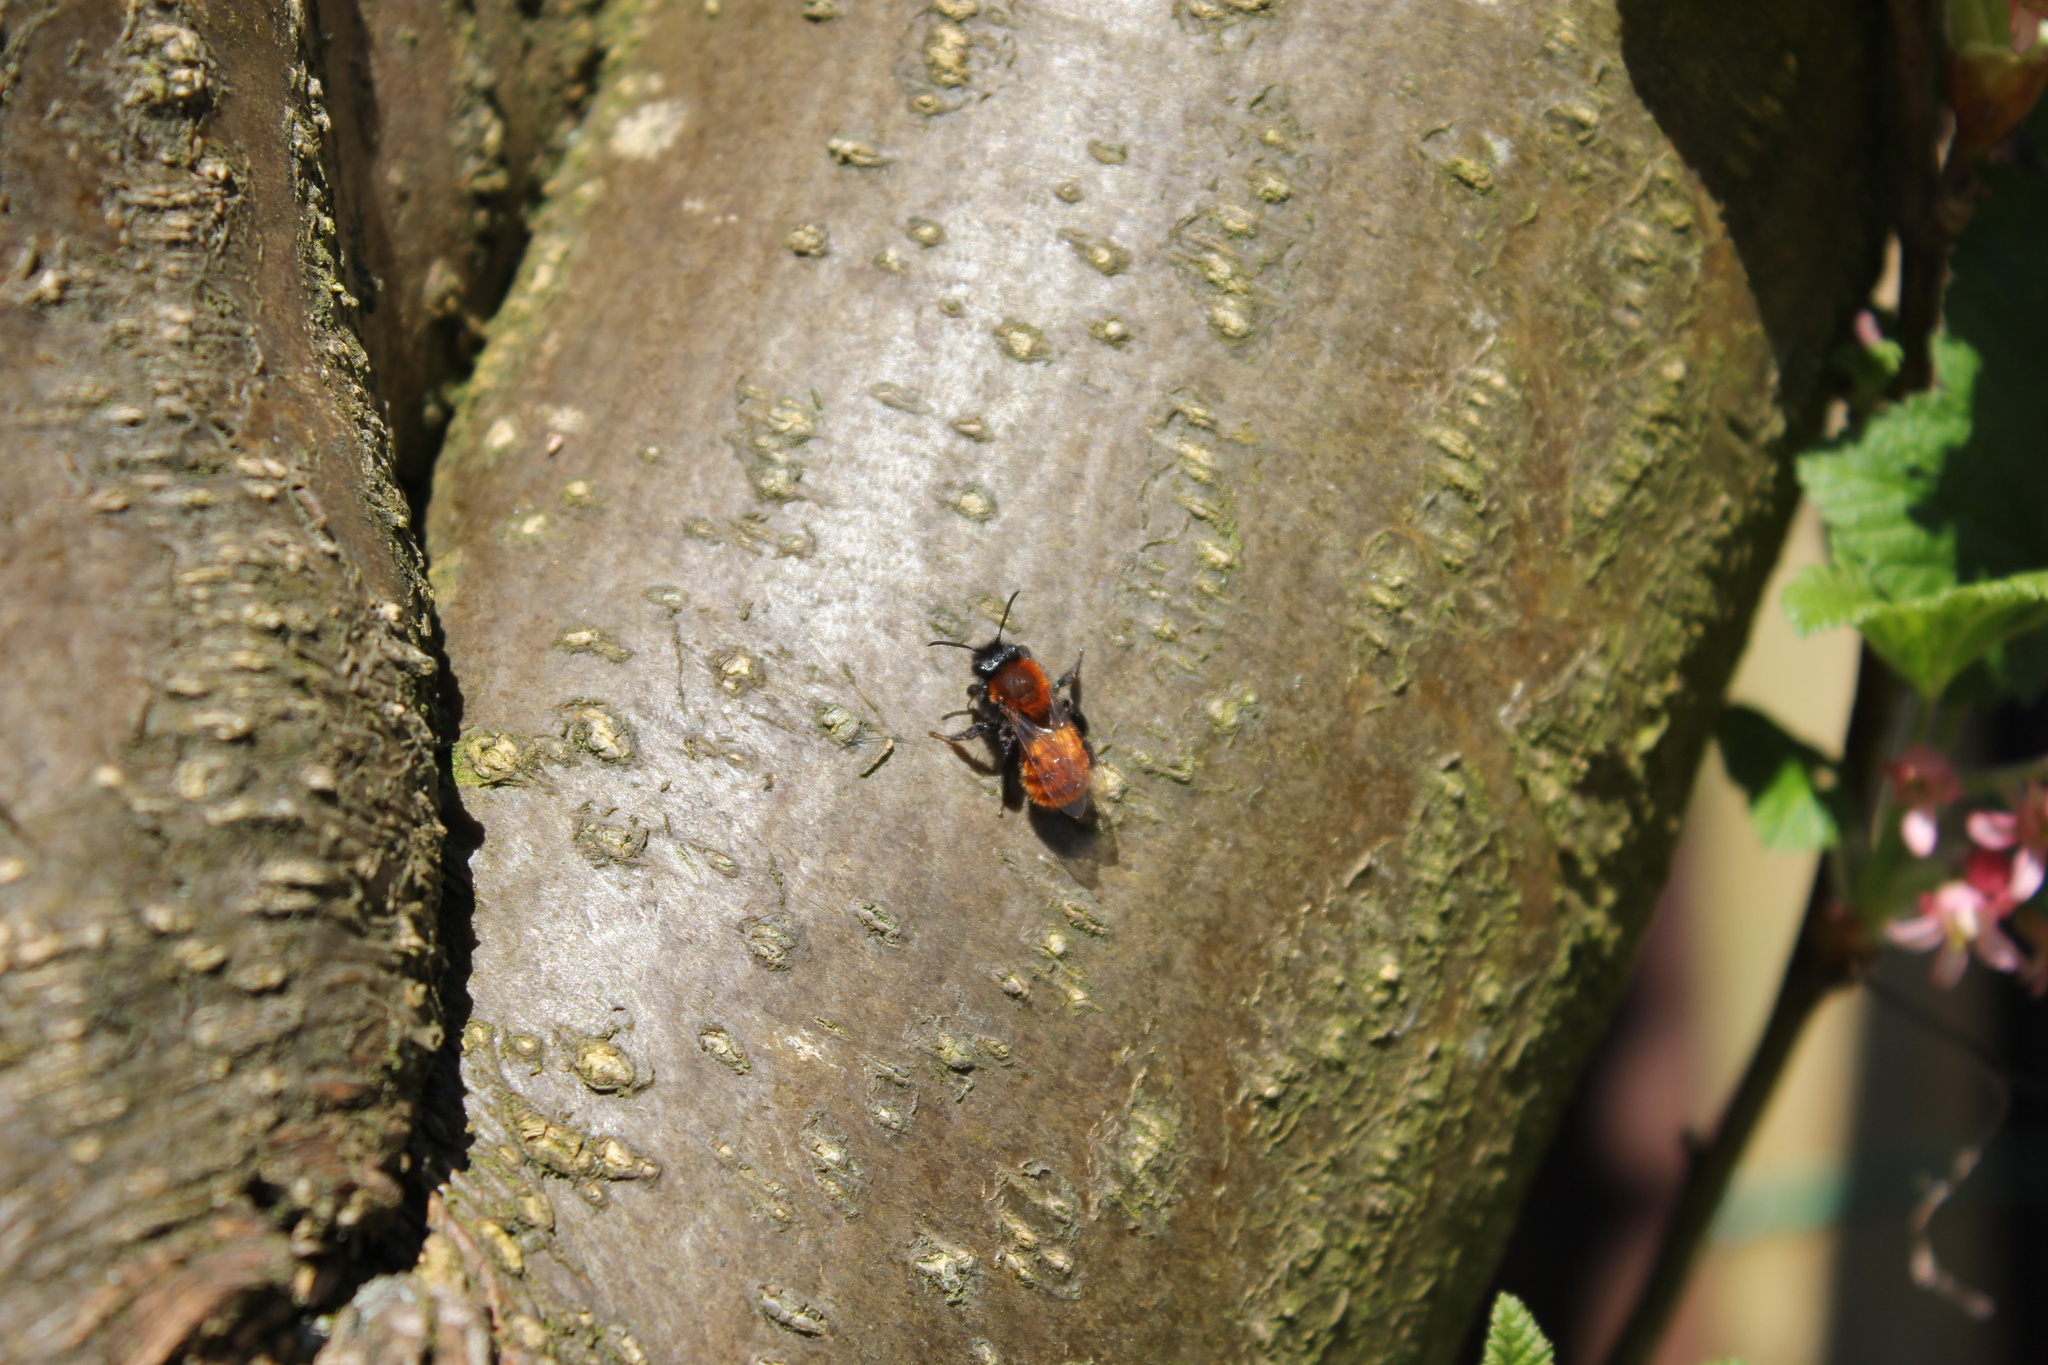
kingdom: Animalia
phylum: Arthropoda
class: Insecta
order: Hymenoptera
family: Andrenidae
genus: Andrena
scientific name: Andrena fulva
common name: Tawny mining bee
